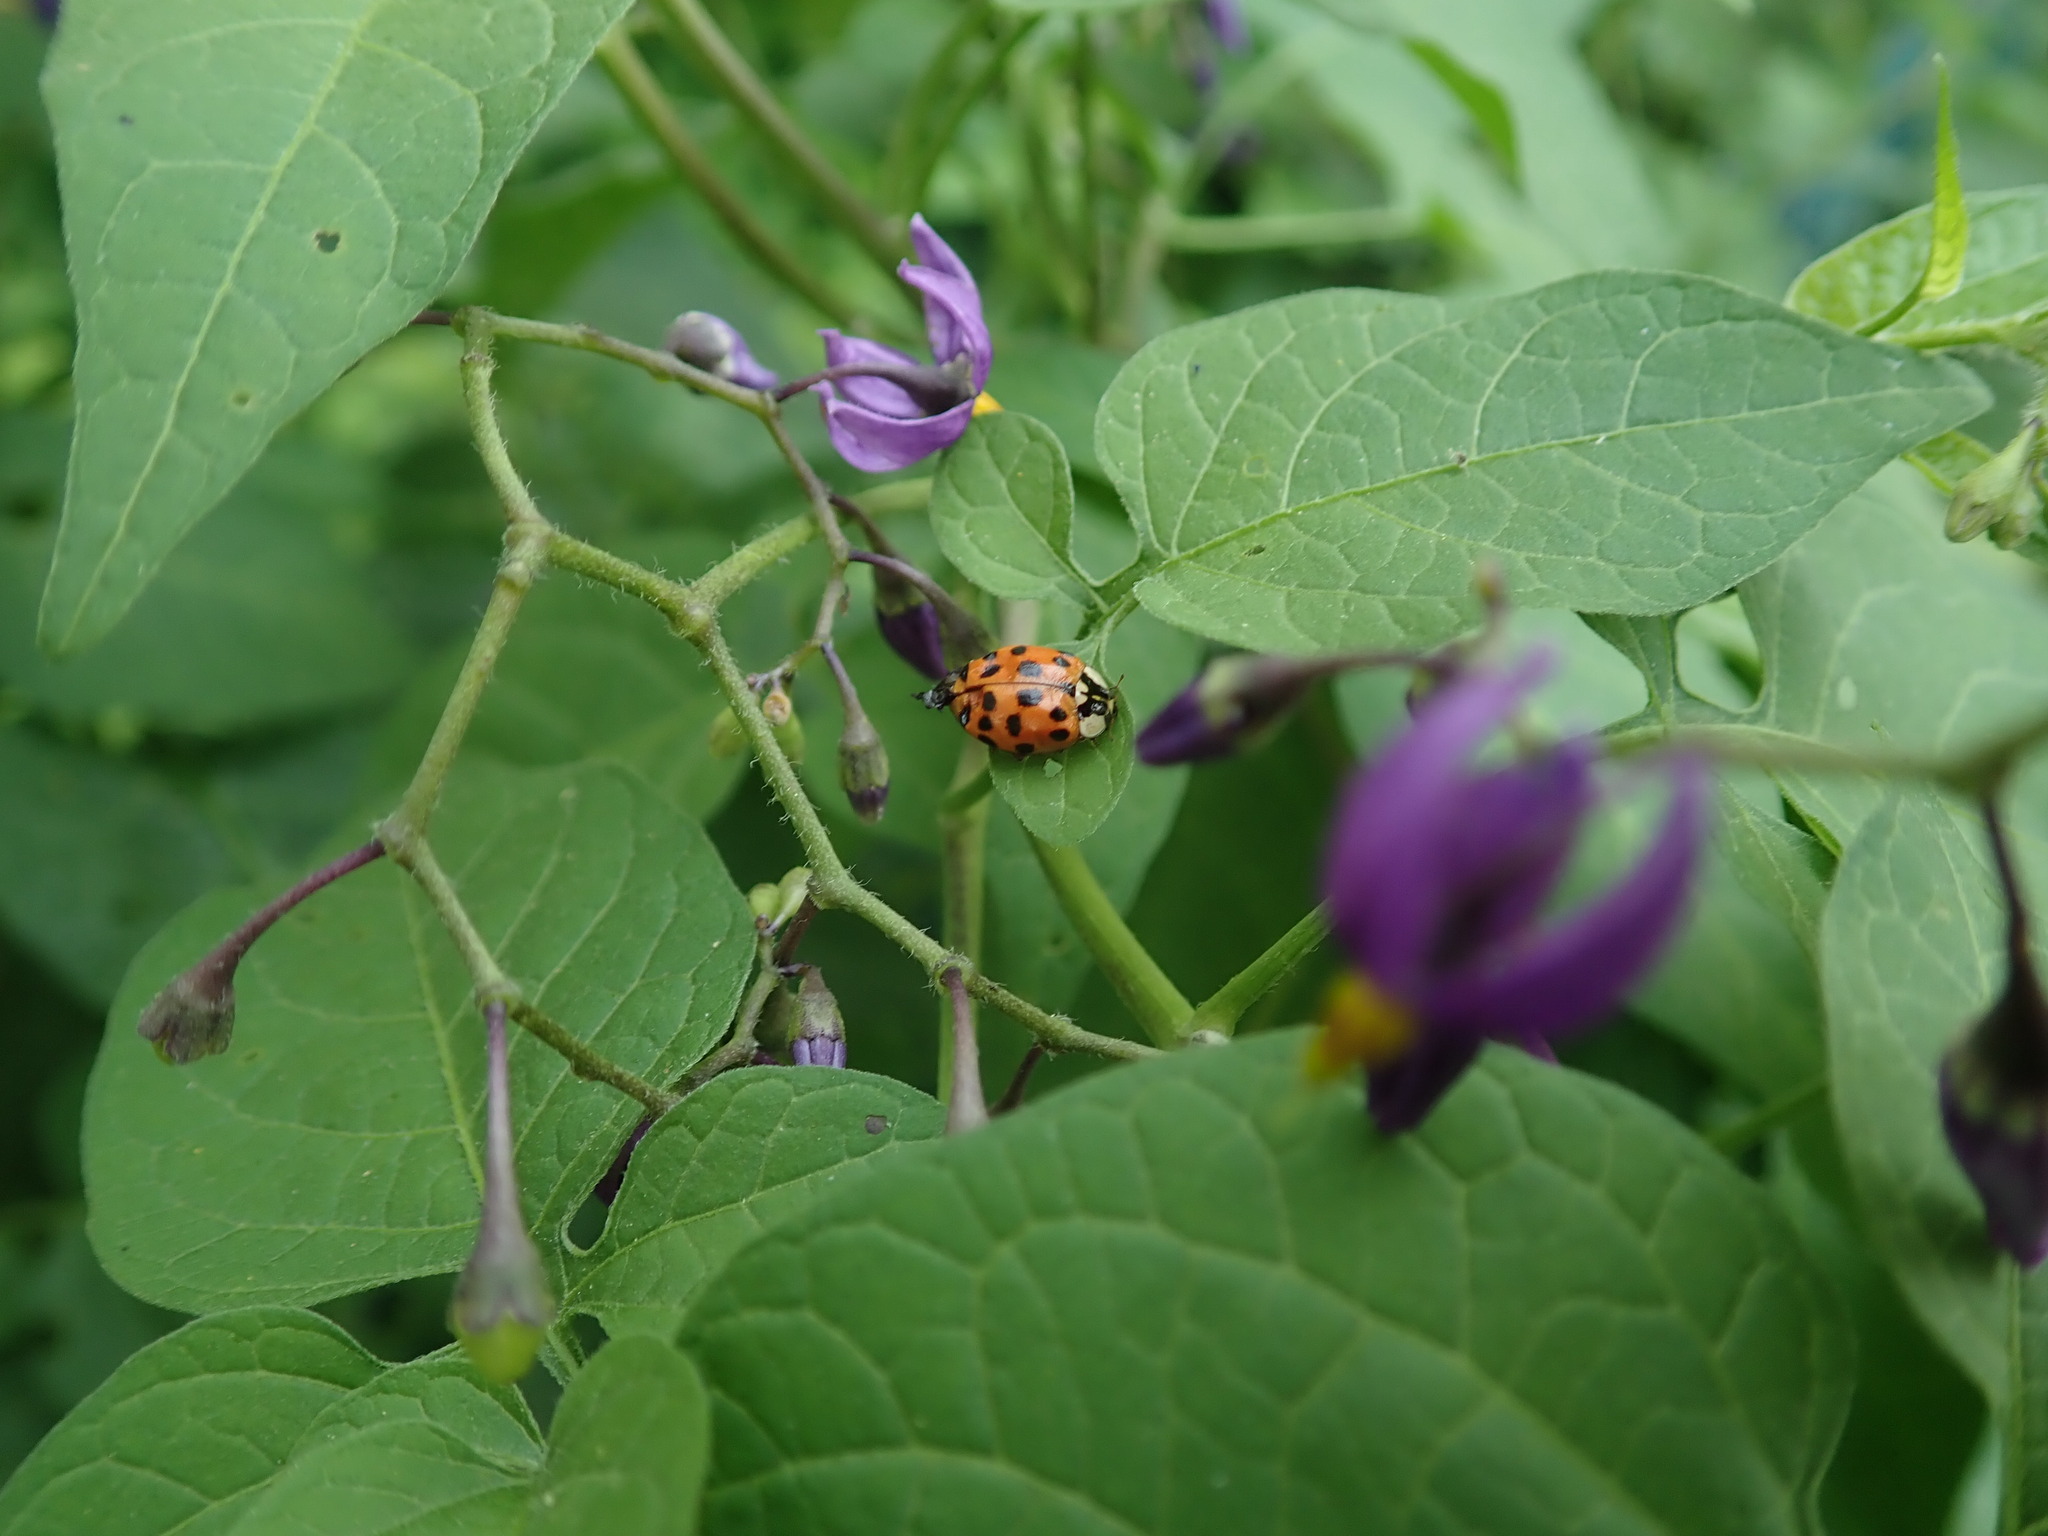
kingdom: Animalia
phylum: Arthropoda
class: Insecta
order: Coleoptera
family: Coccinellidae
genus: Harmonia
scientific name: Harmonia axyridis
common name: Harlequin ladybird
